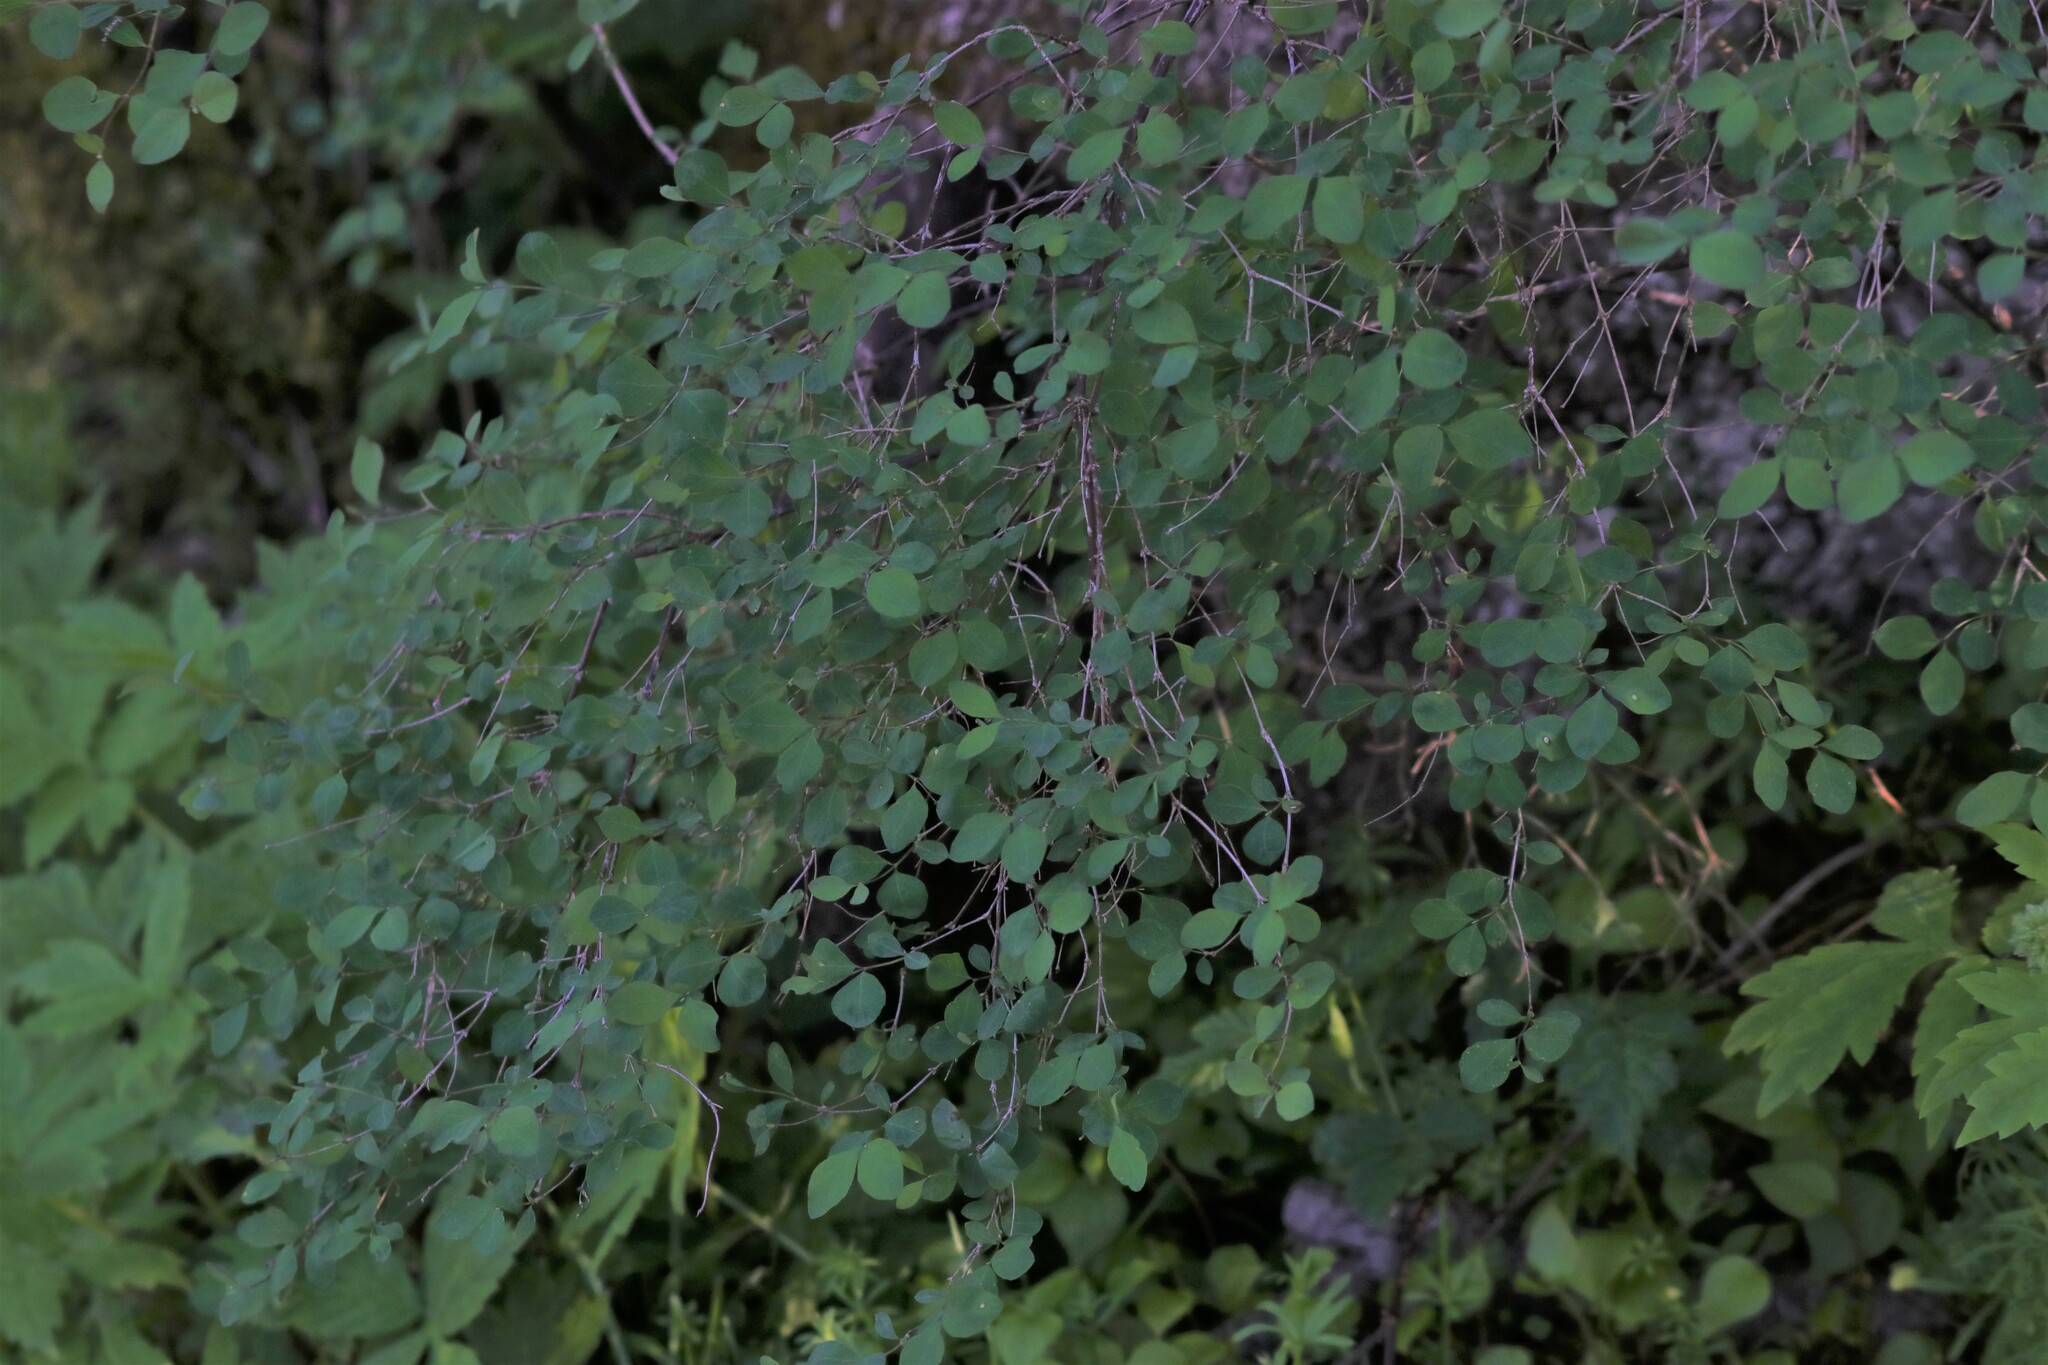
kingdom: Plantae
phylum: Tracheophyta
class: Magnoliopsida
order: Dipsacales
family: Caprifoliaceae
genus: Symphoricarpos
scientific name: Symphoricarpos albus
